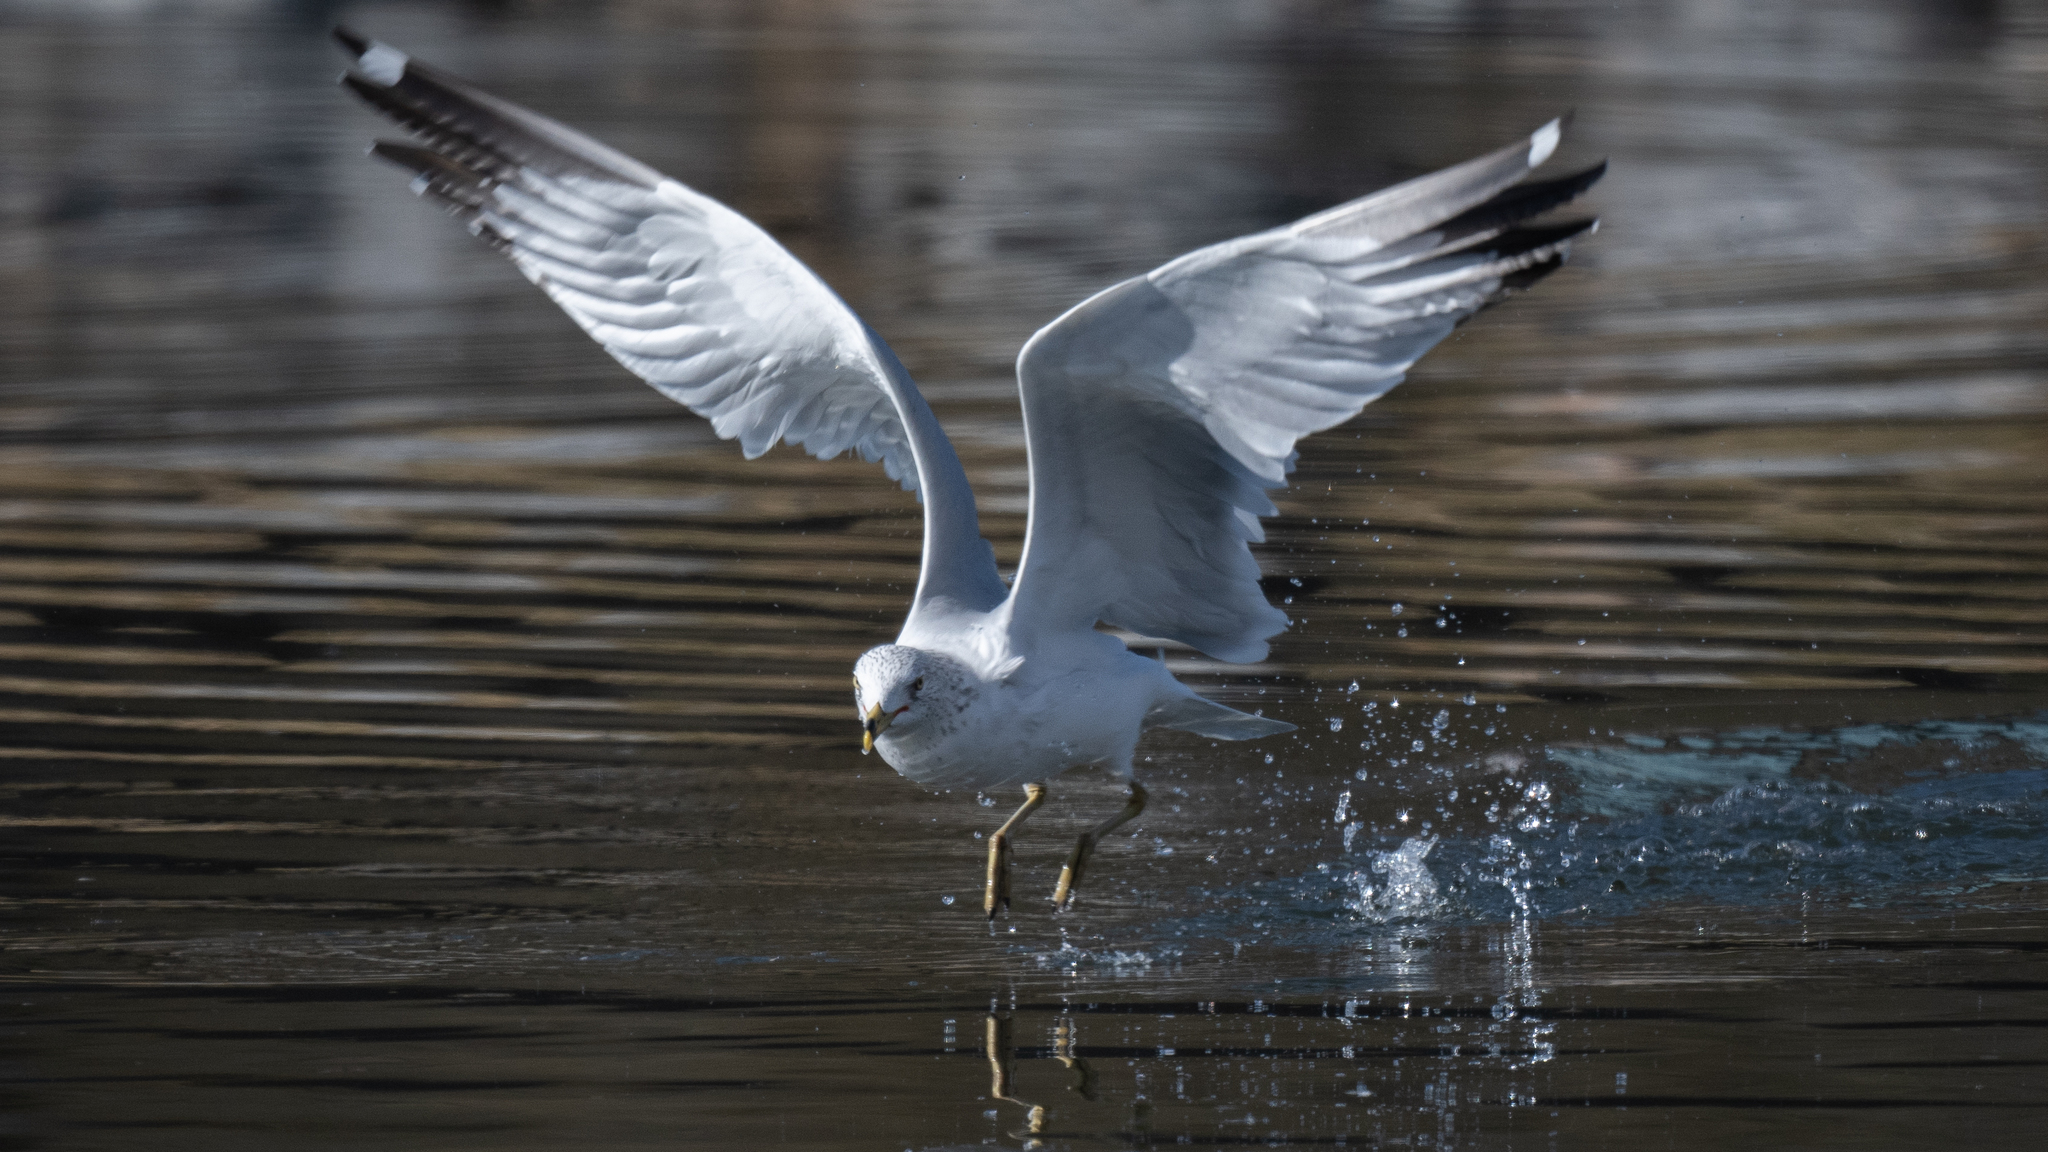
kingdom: Animalia
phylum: Chordata
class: Aves
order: Charadriiformes
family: Laridae
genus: Larus
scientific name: Larus delawarensis
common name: Ring-billed gull
